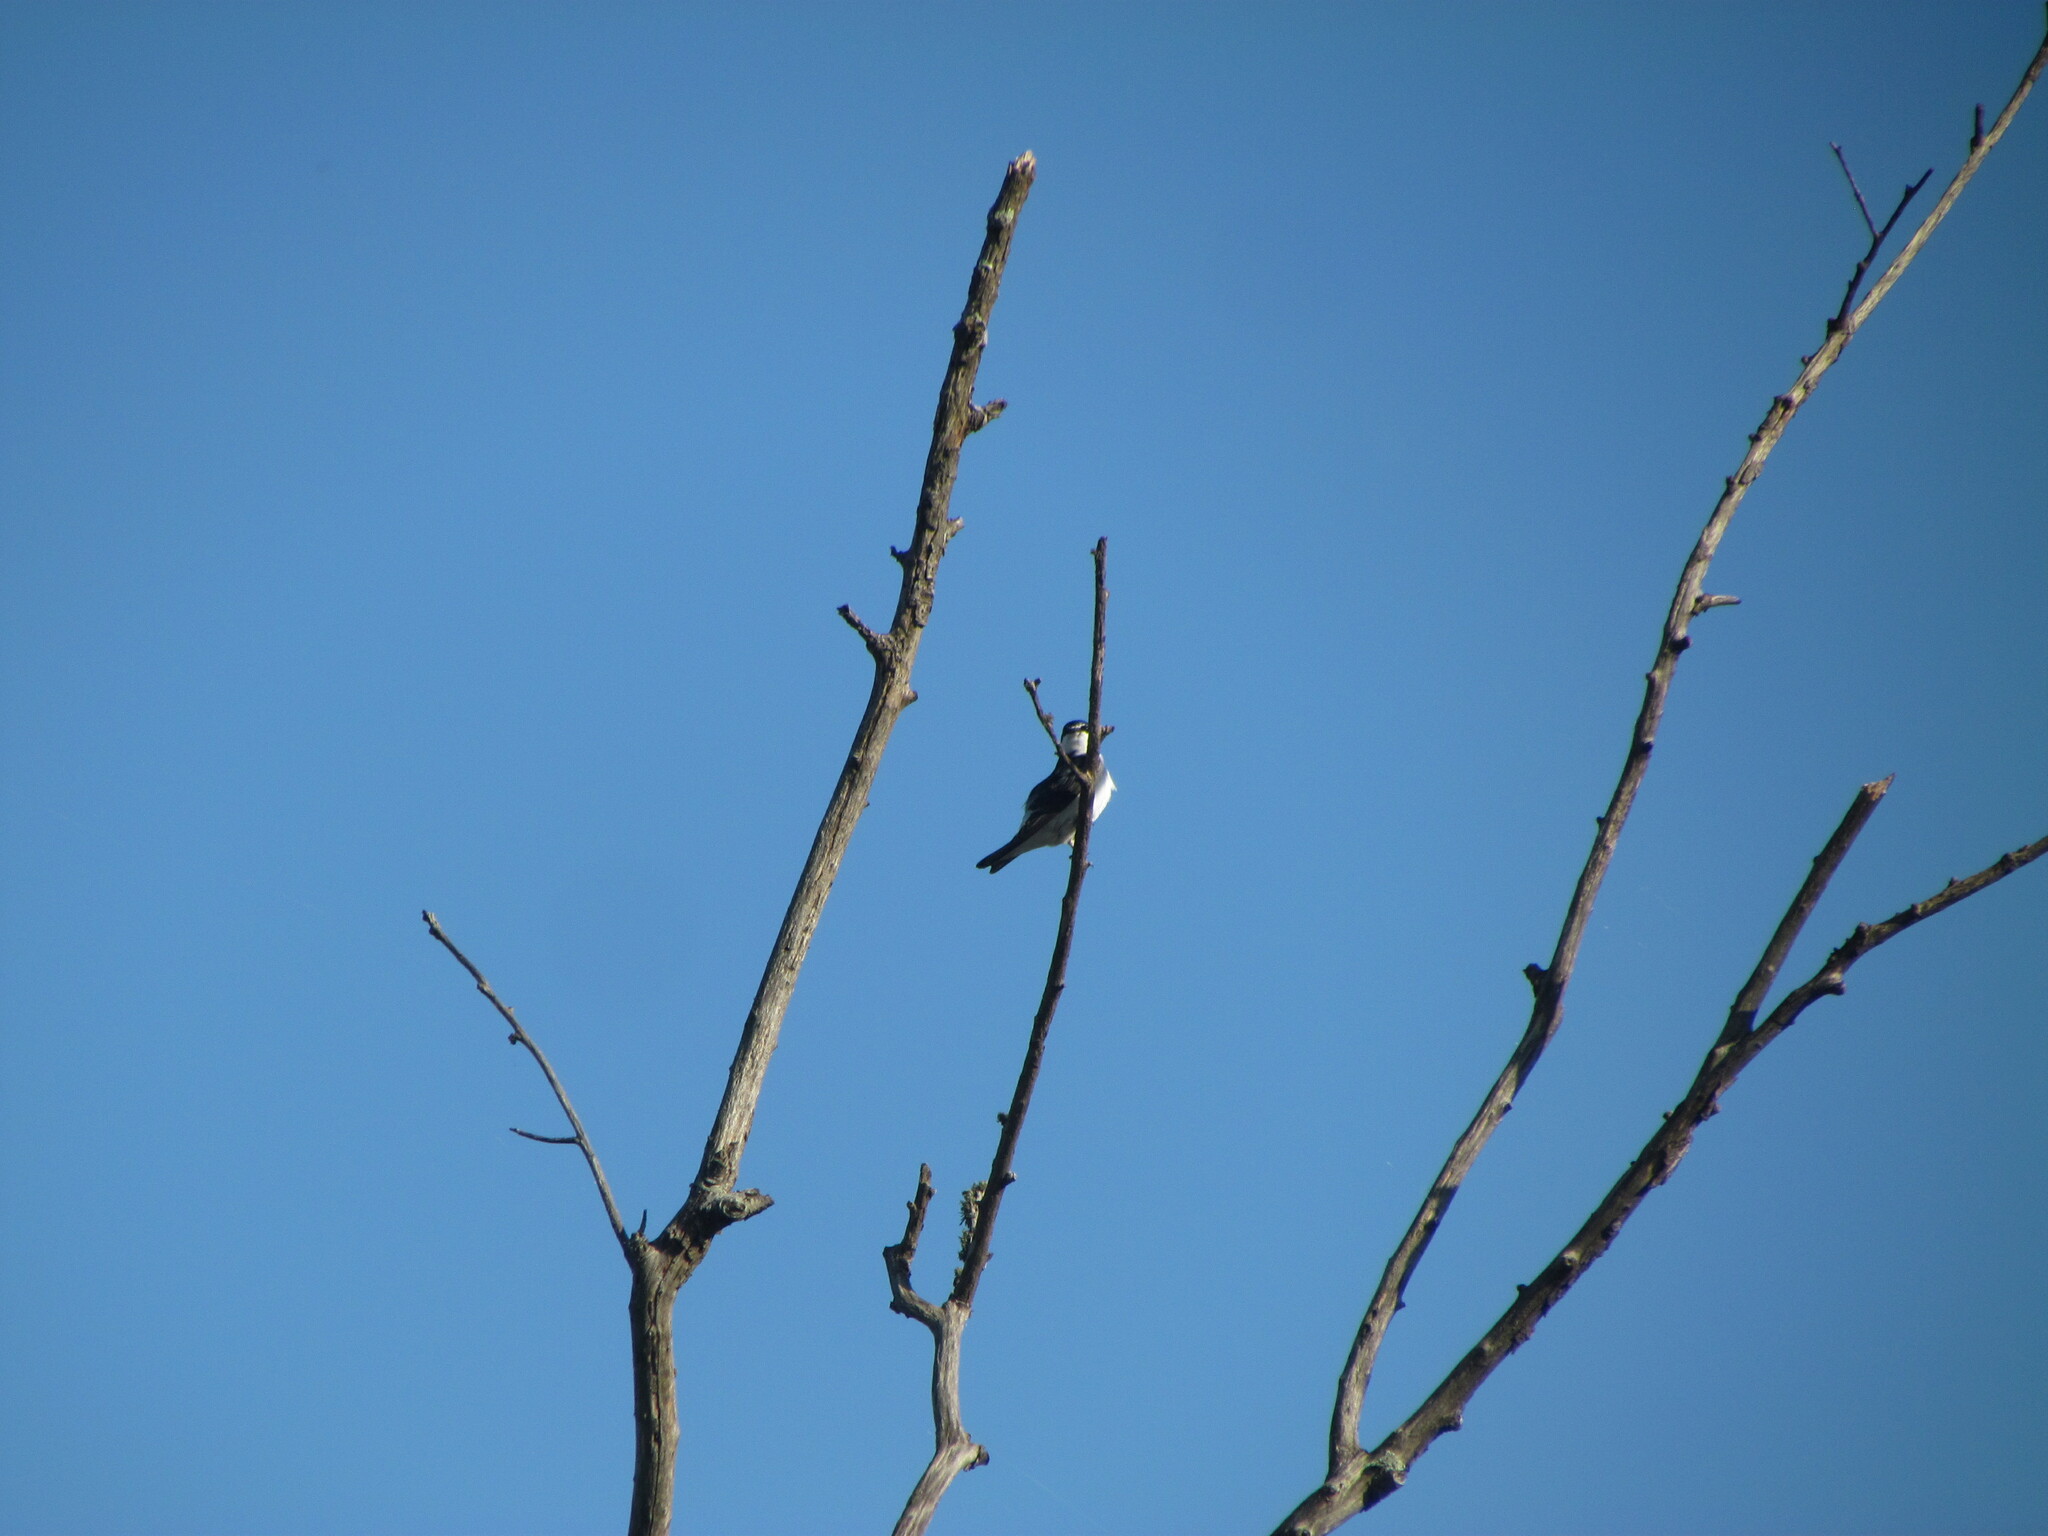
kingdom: Animalia
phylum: Chordata
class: Aves
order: Passeriformes
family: Hirundinidae
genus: Tachycineta
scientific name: Tachycineta leucorrhoa
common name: White-rumped swallow
